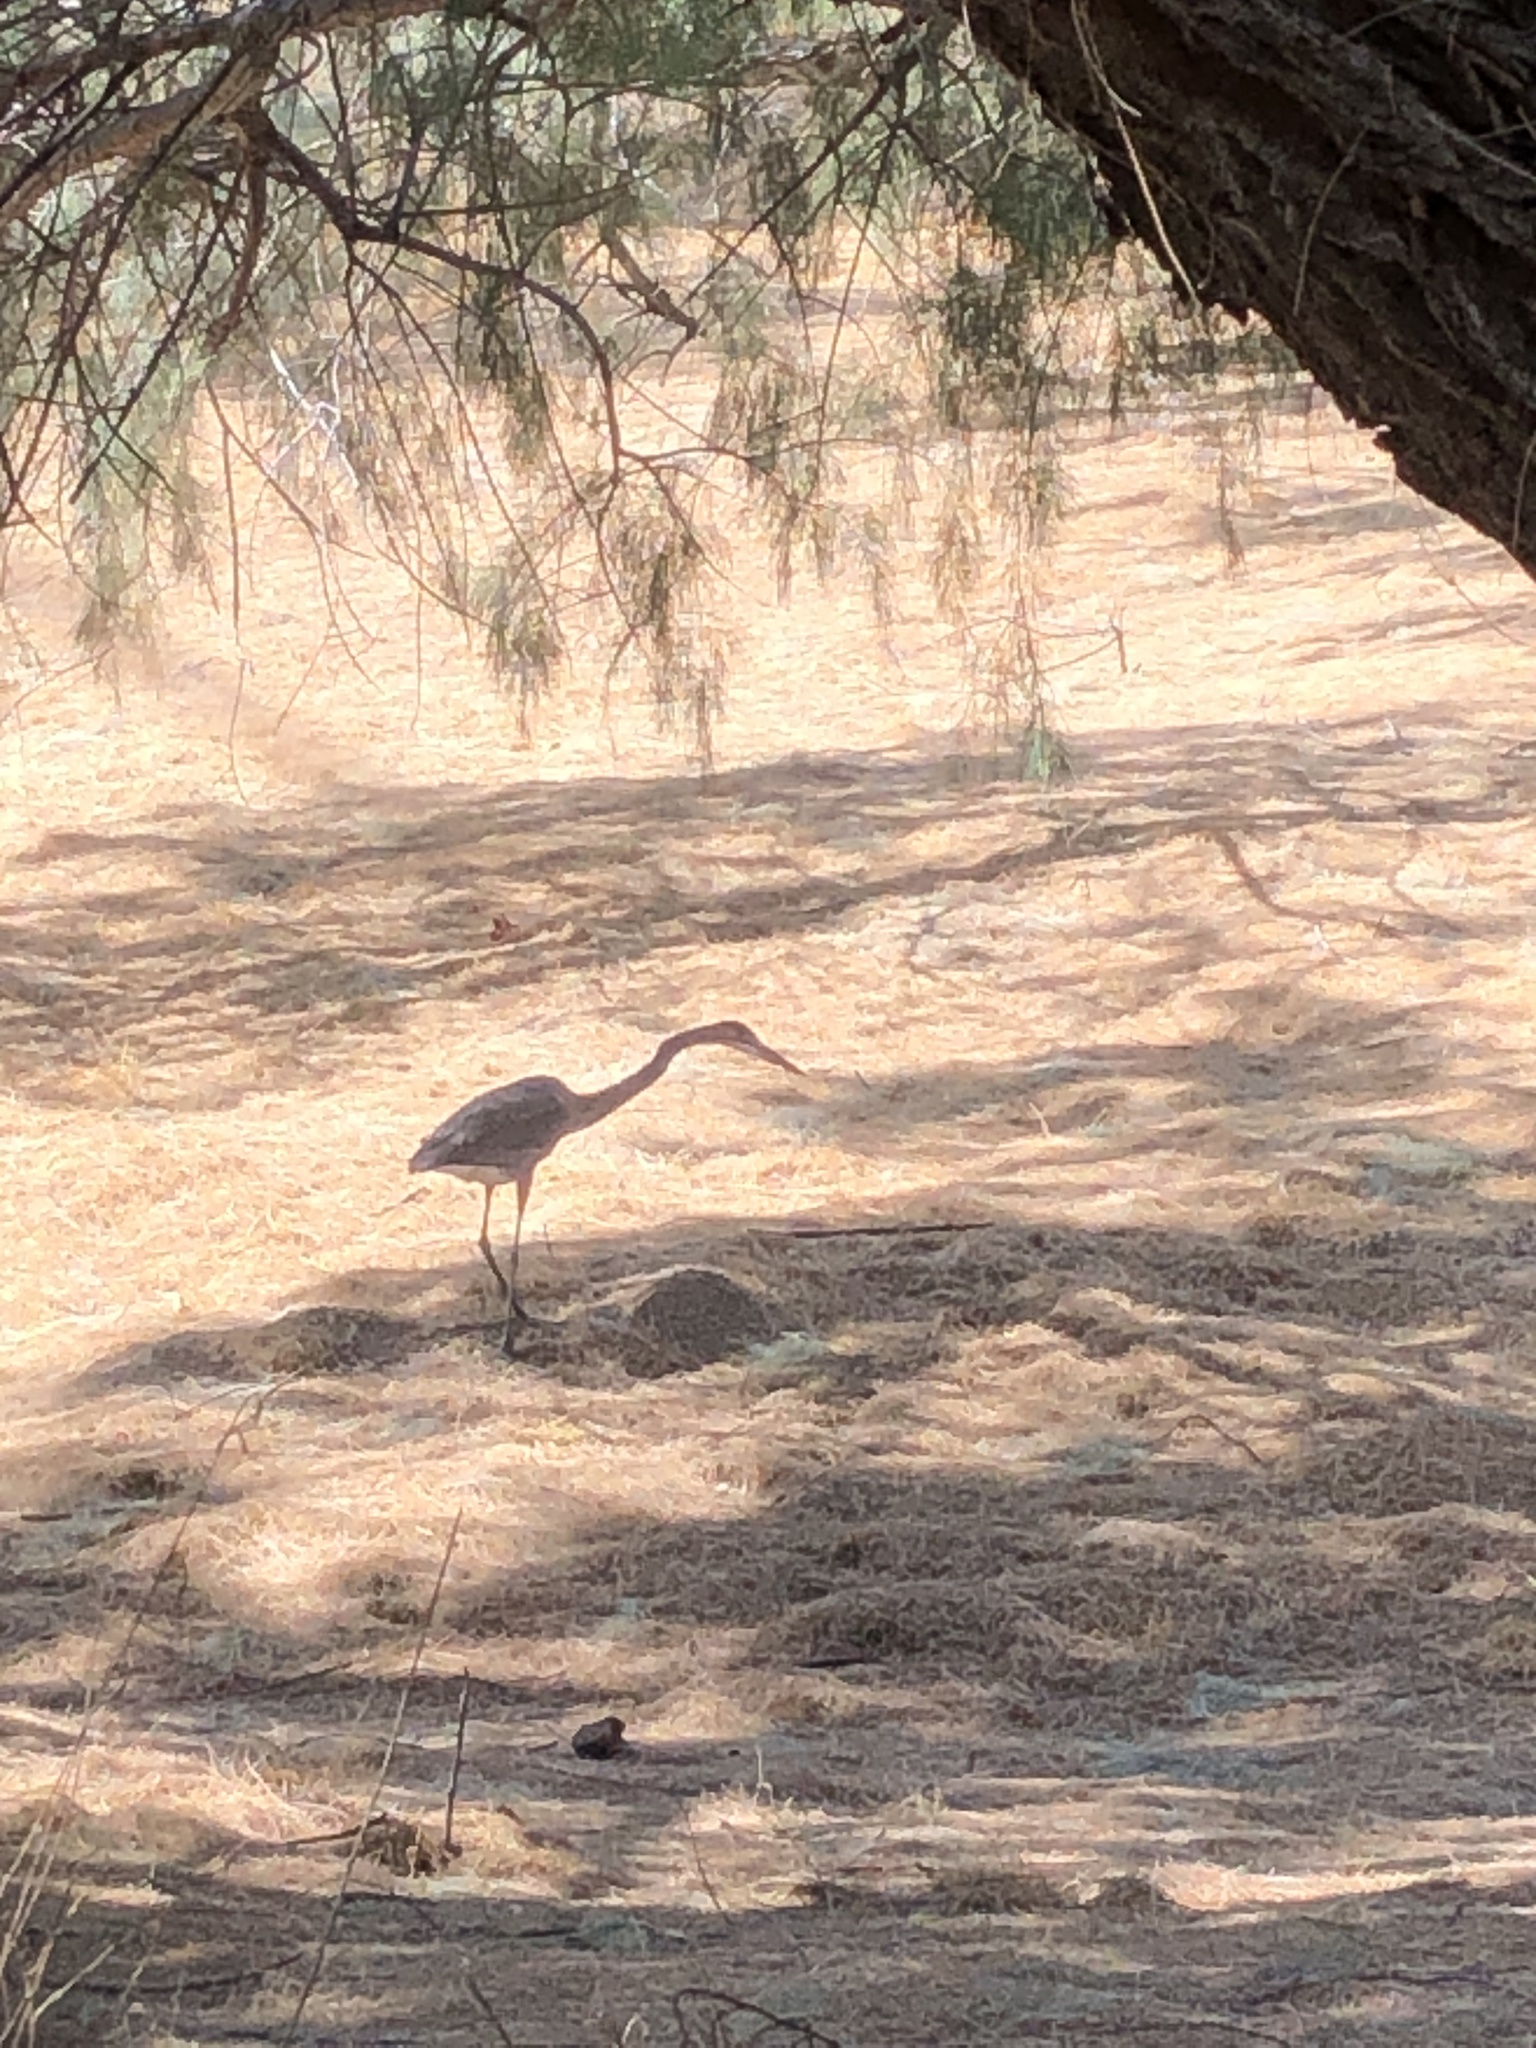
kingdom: Animalia
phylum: Chordata
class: Aves
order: Pelecaniformes
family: Ardeidae
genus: Ardea
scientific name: Ardea herodias
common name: Great blue heron
